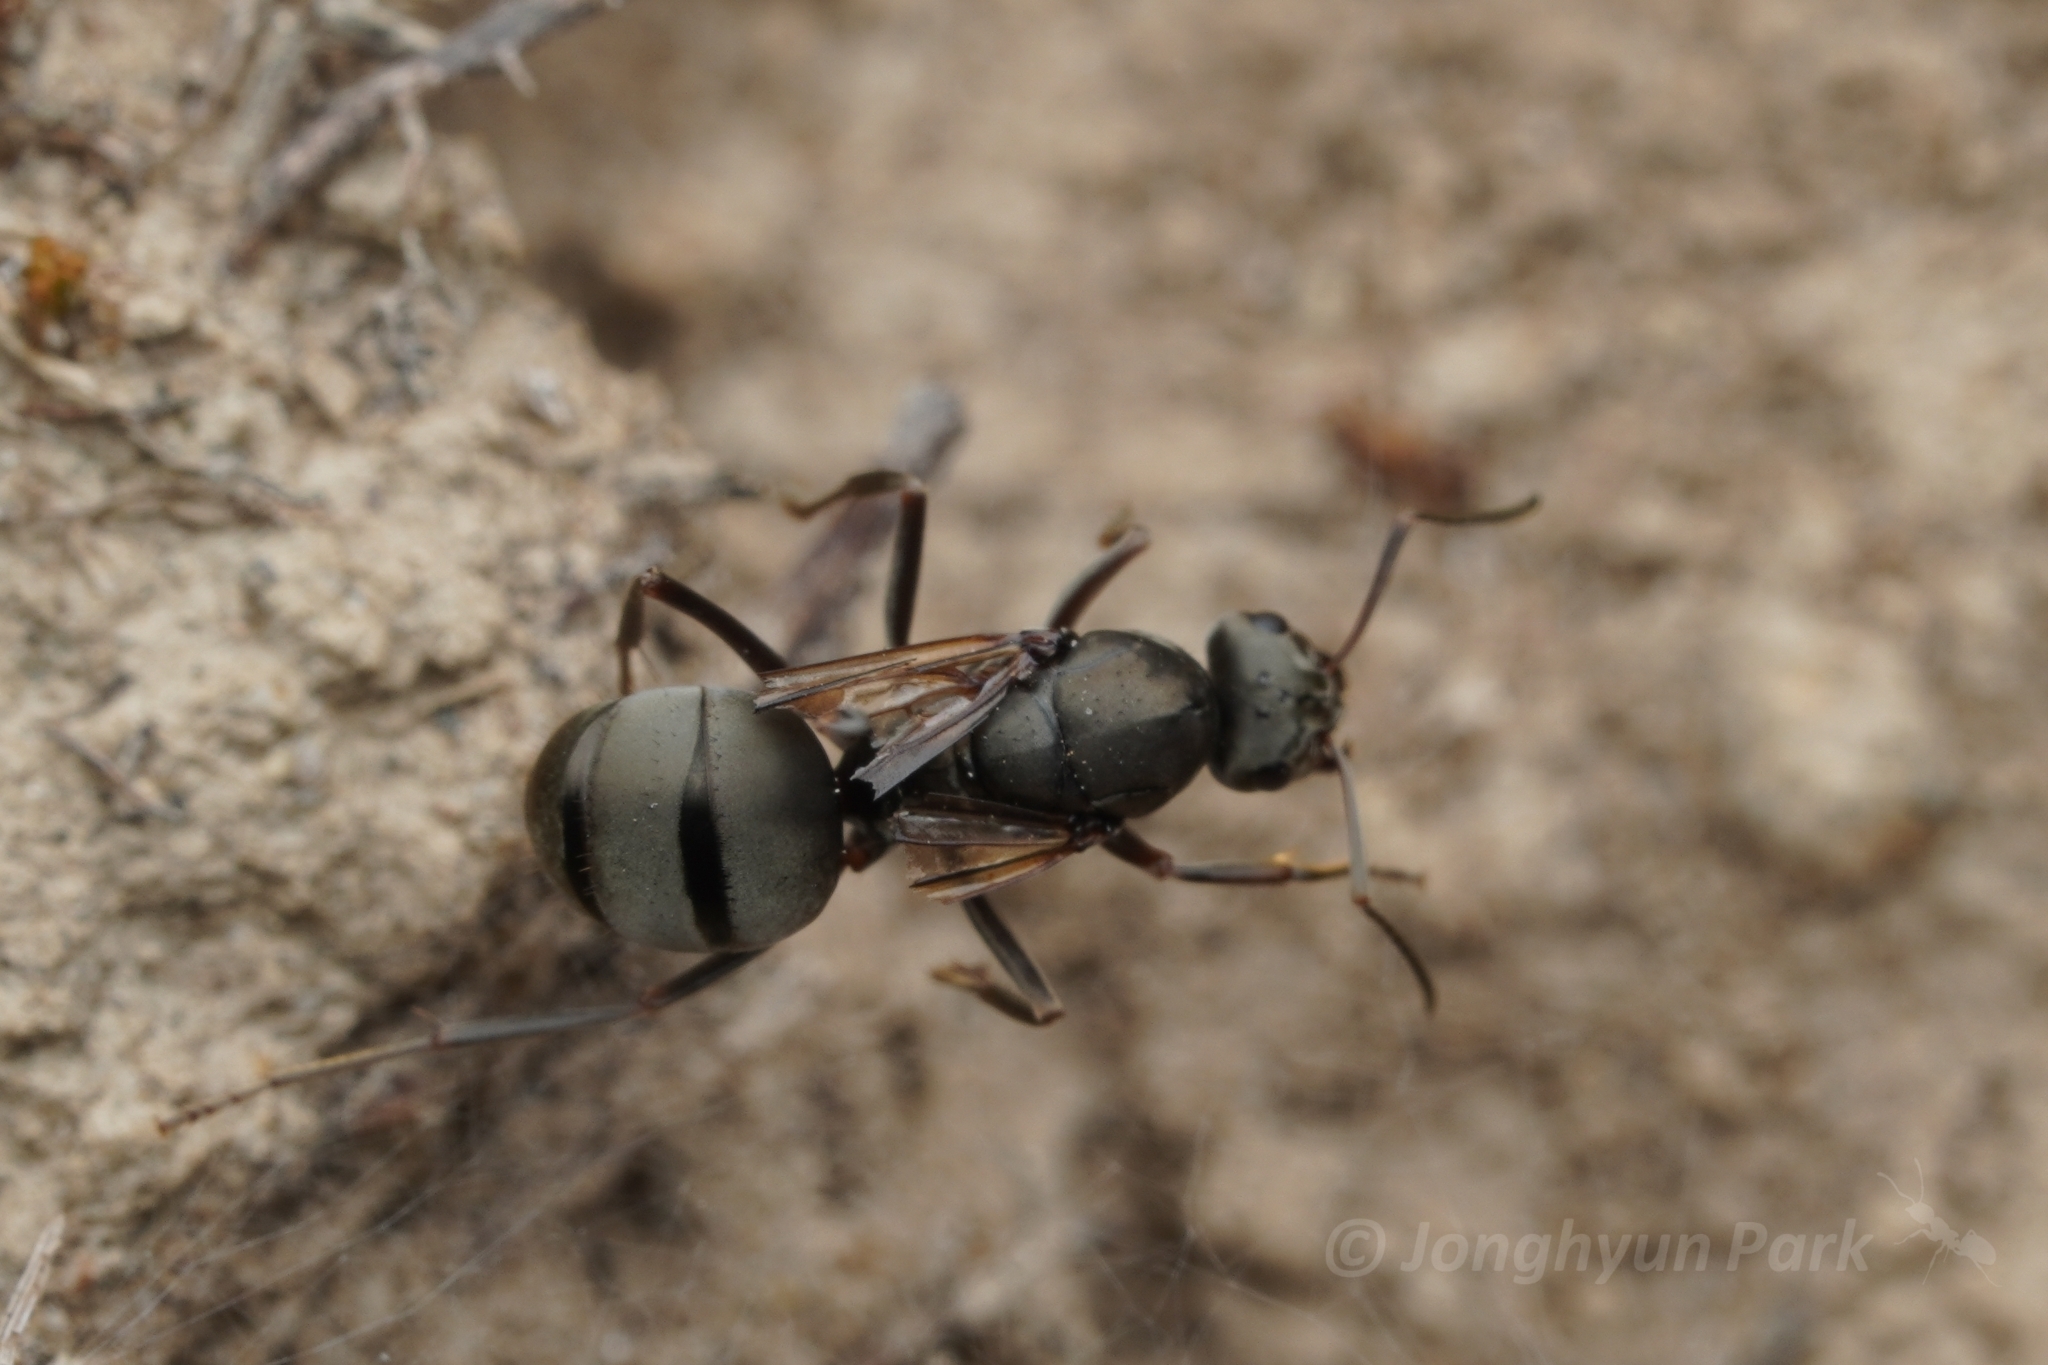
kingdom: Animalia
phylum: Arthropoda
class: Insecta
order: Hymenoptera
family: Formicidae
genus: Formica
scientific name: Formica japonica
